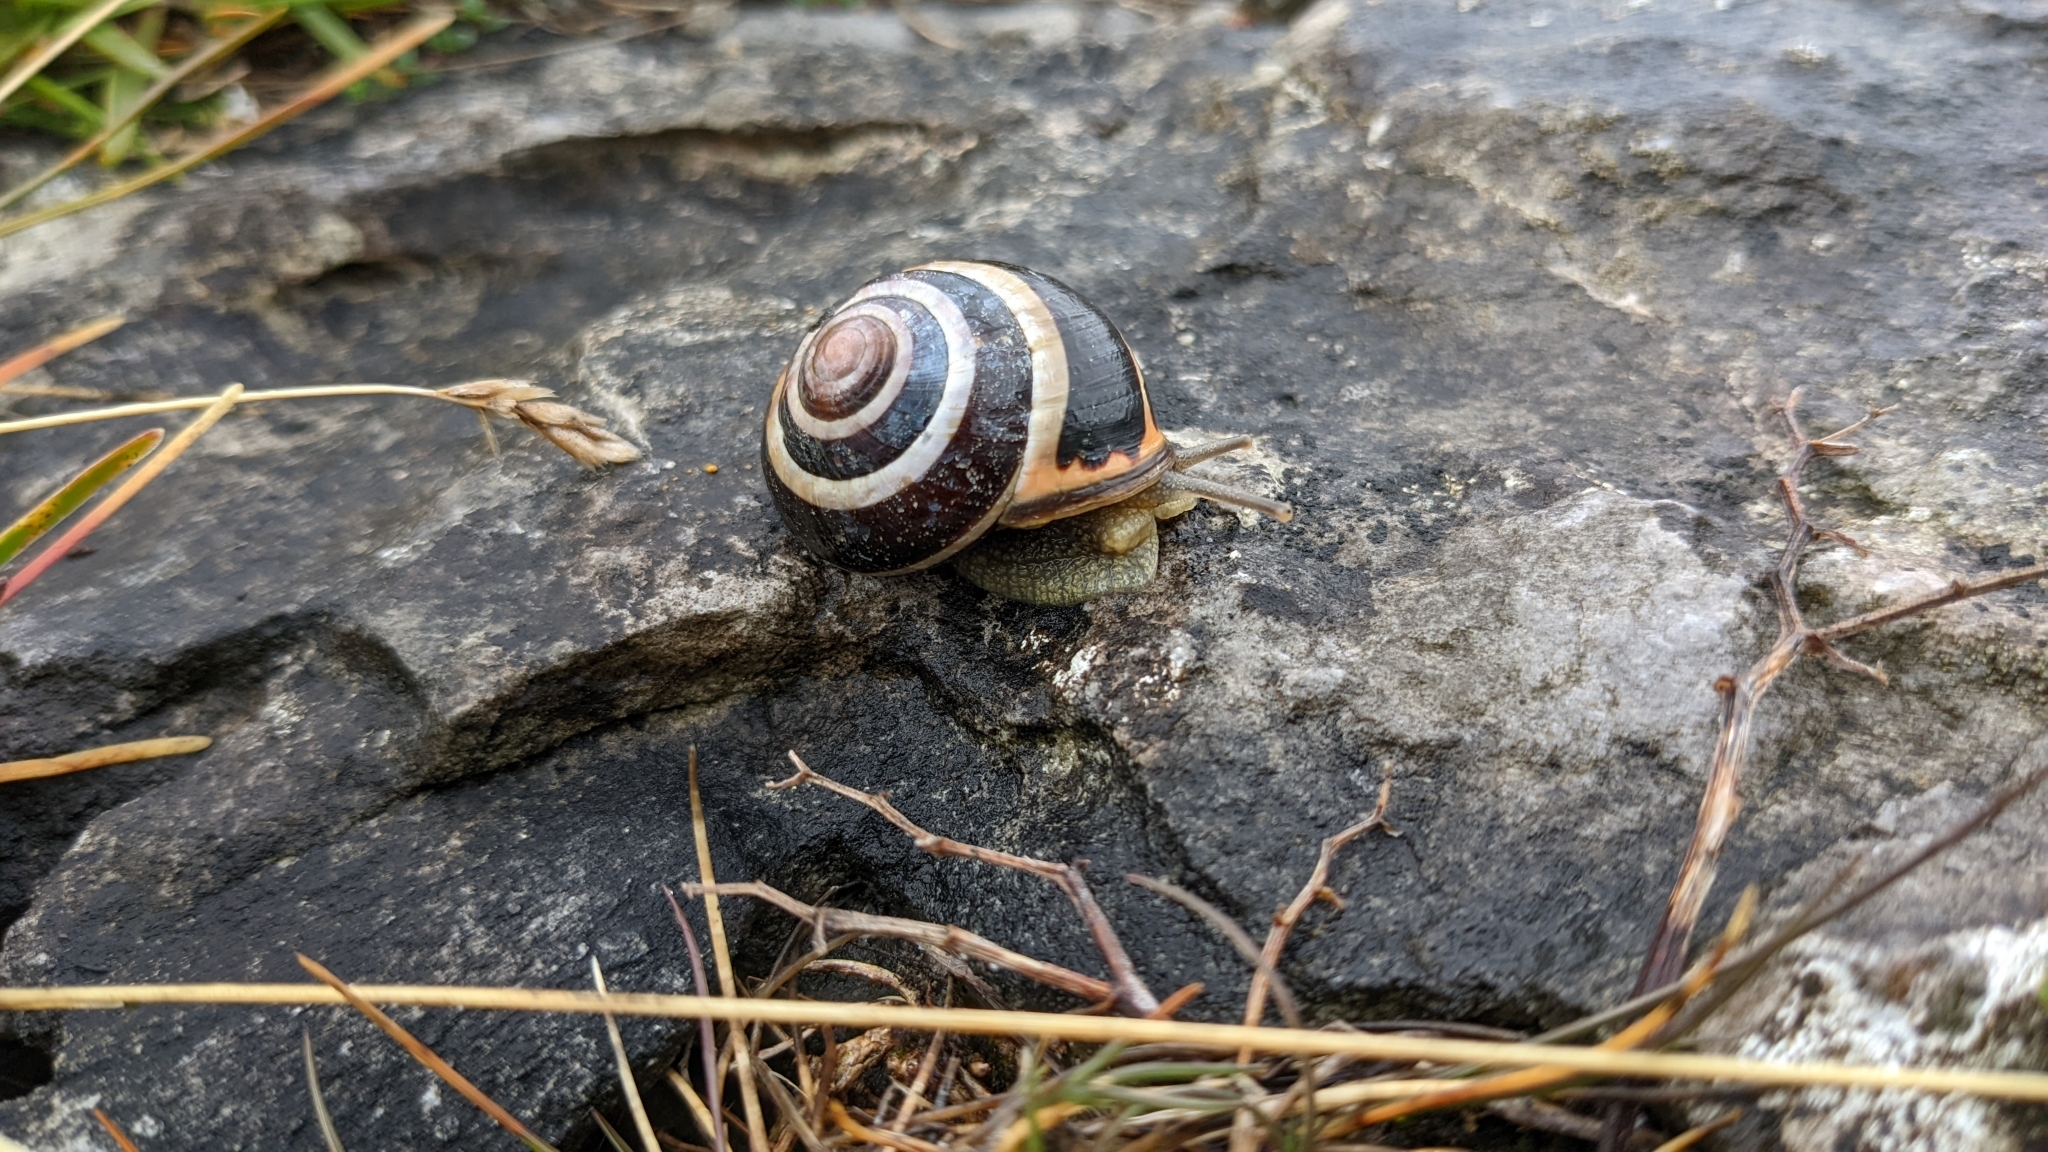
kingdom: Animalia
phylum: Mollusca
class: Gastropoda
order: Stylommatophora
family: Helicidae
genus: Cepaea
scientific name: Cepaea nemoralis
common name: Grovesnail
